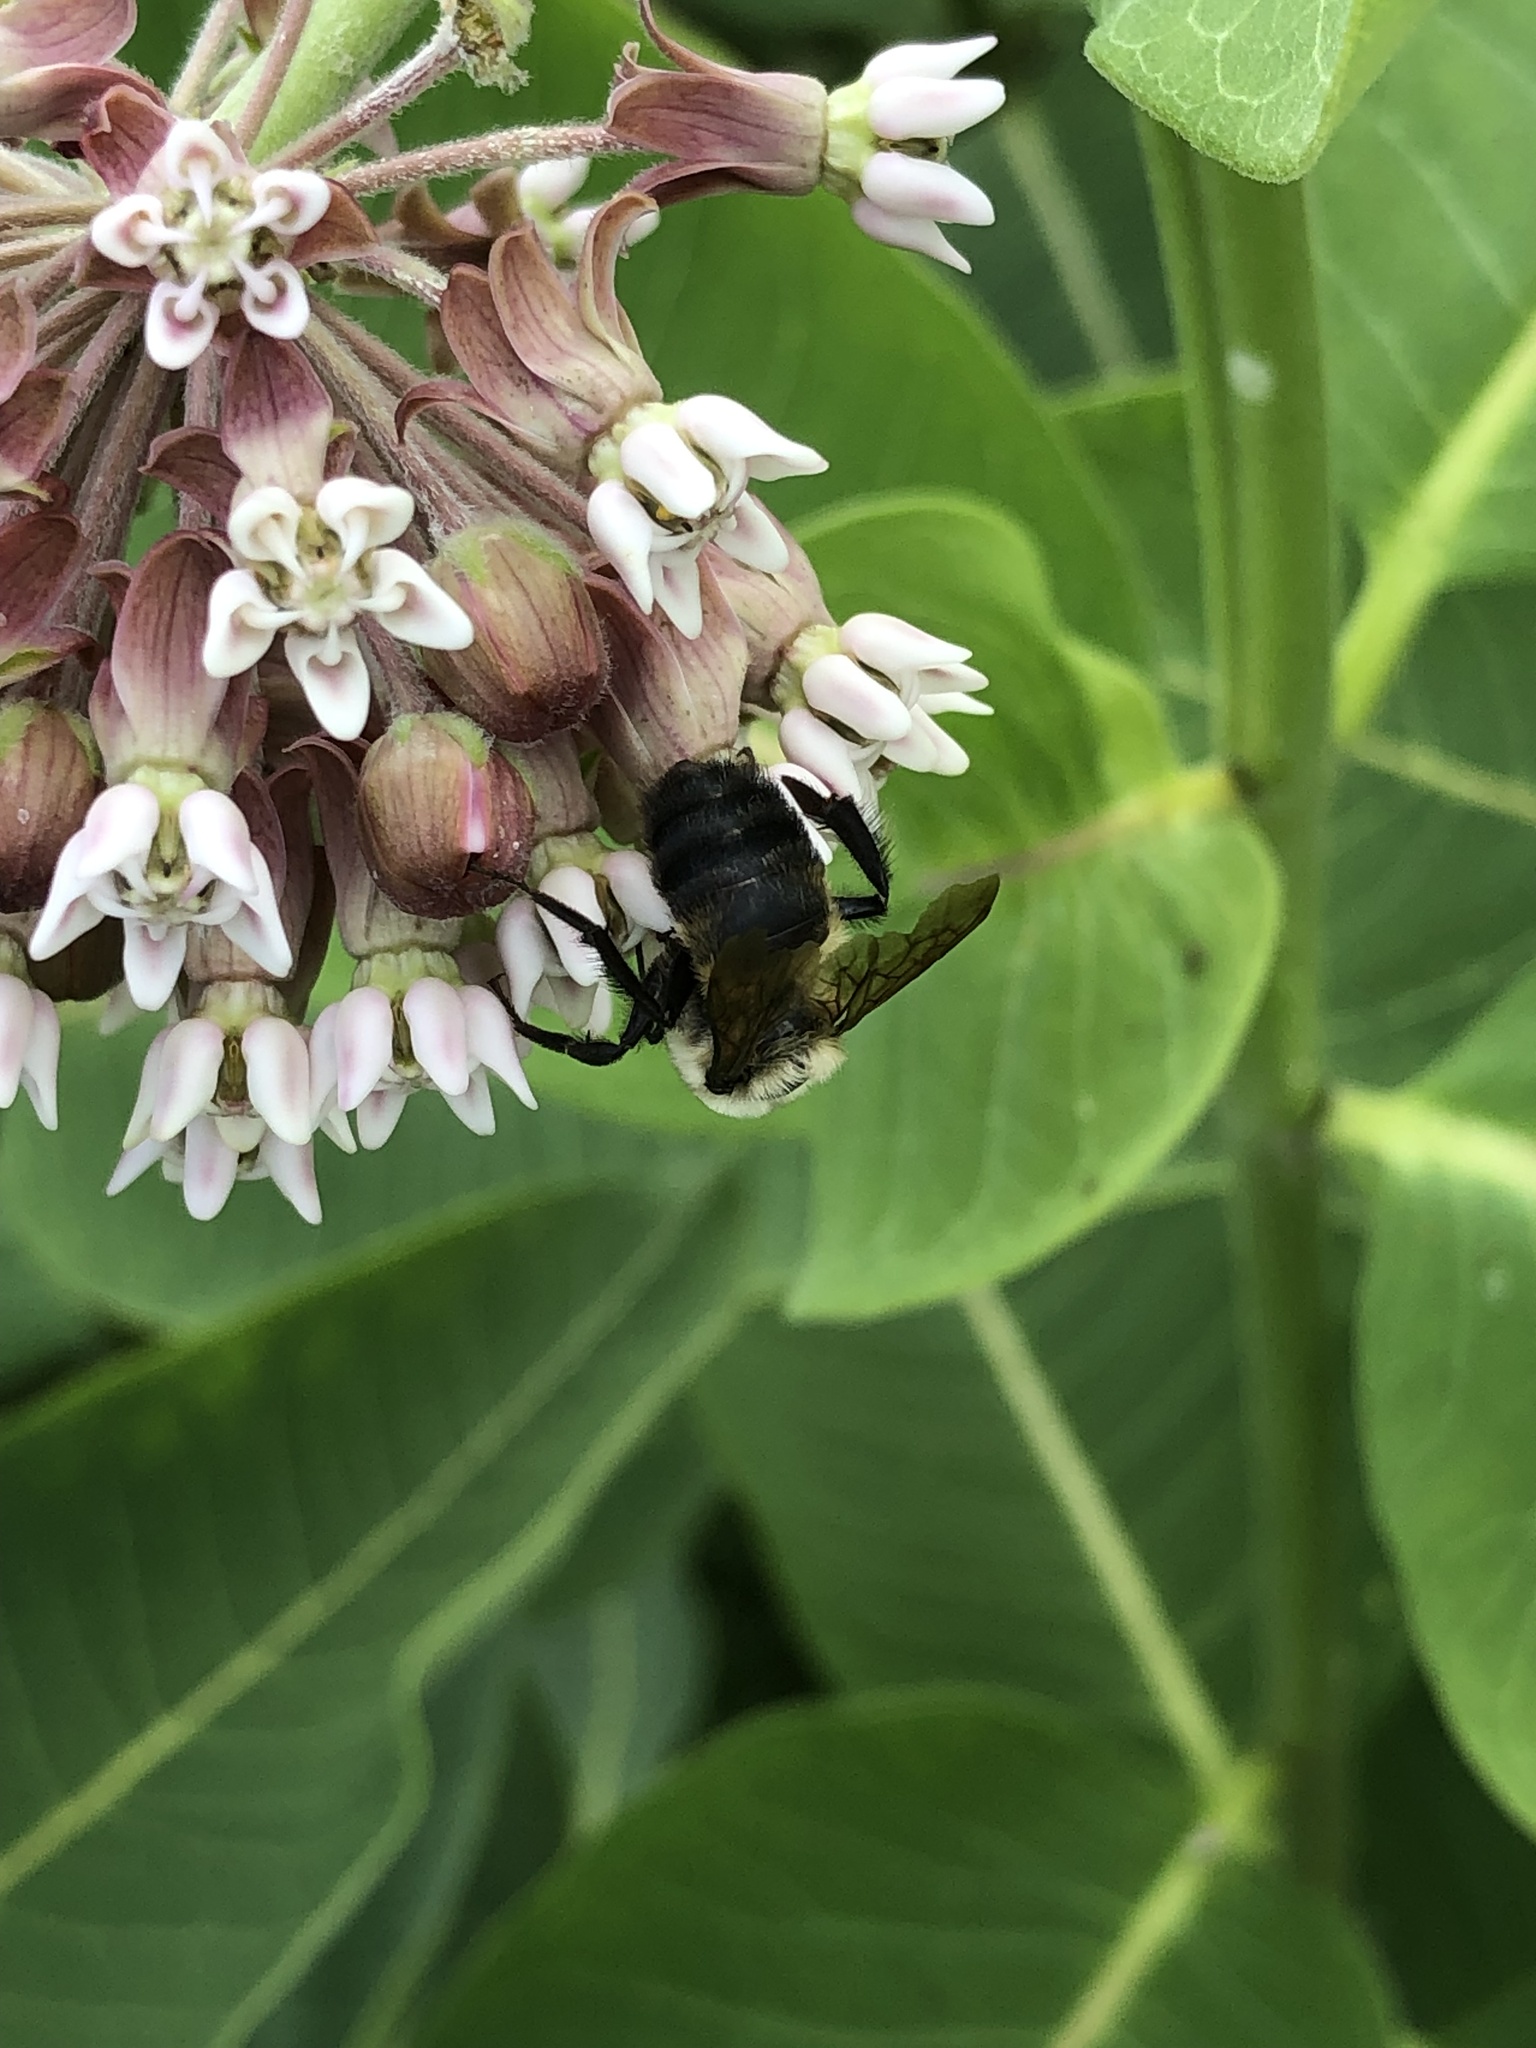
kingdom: Animalia
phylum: Arthropoda
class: Insecta
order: Hymenoptera
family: Apidae
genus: Bombus
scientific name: Bombus griseocollis
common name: Brown-belted bumble bee
